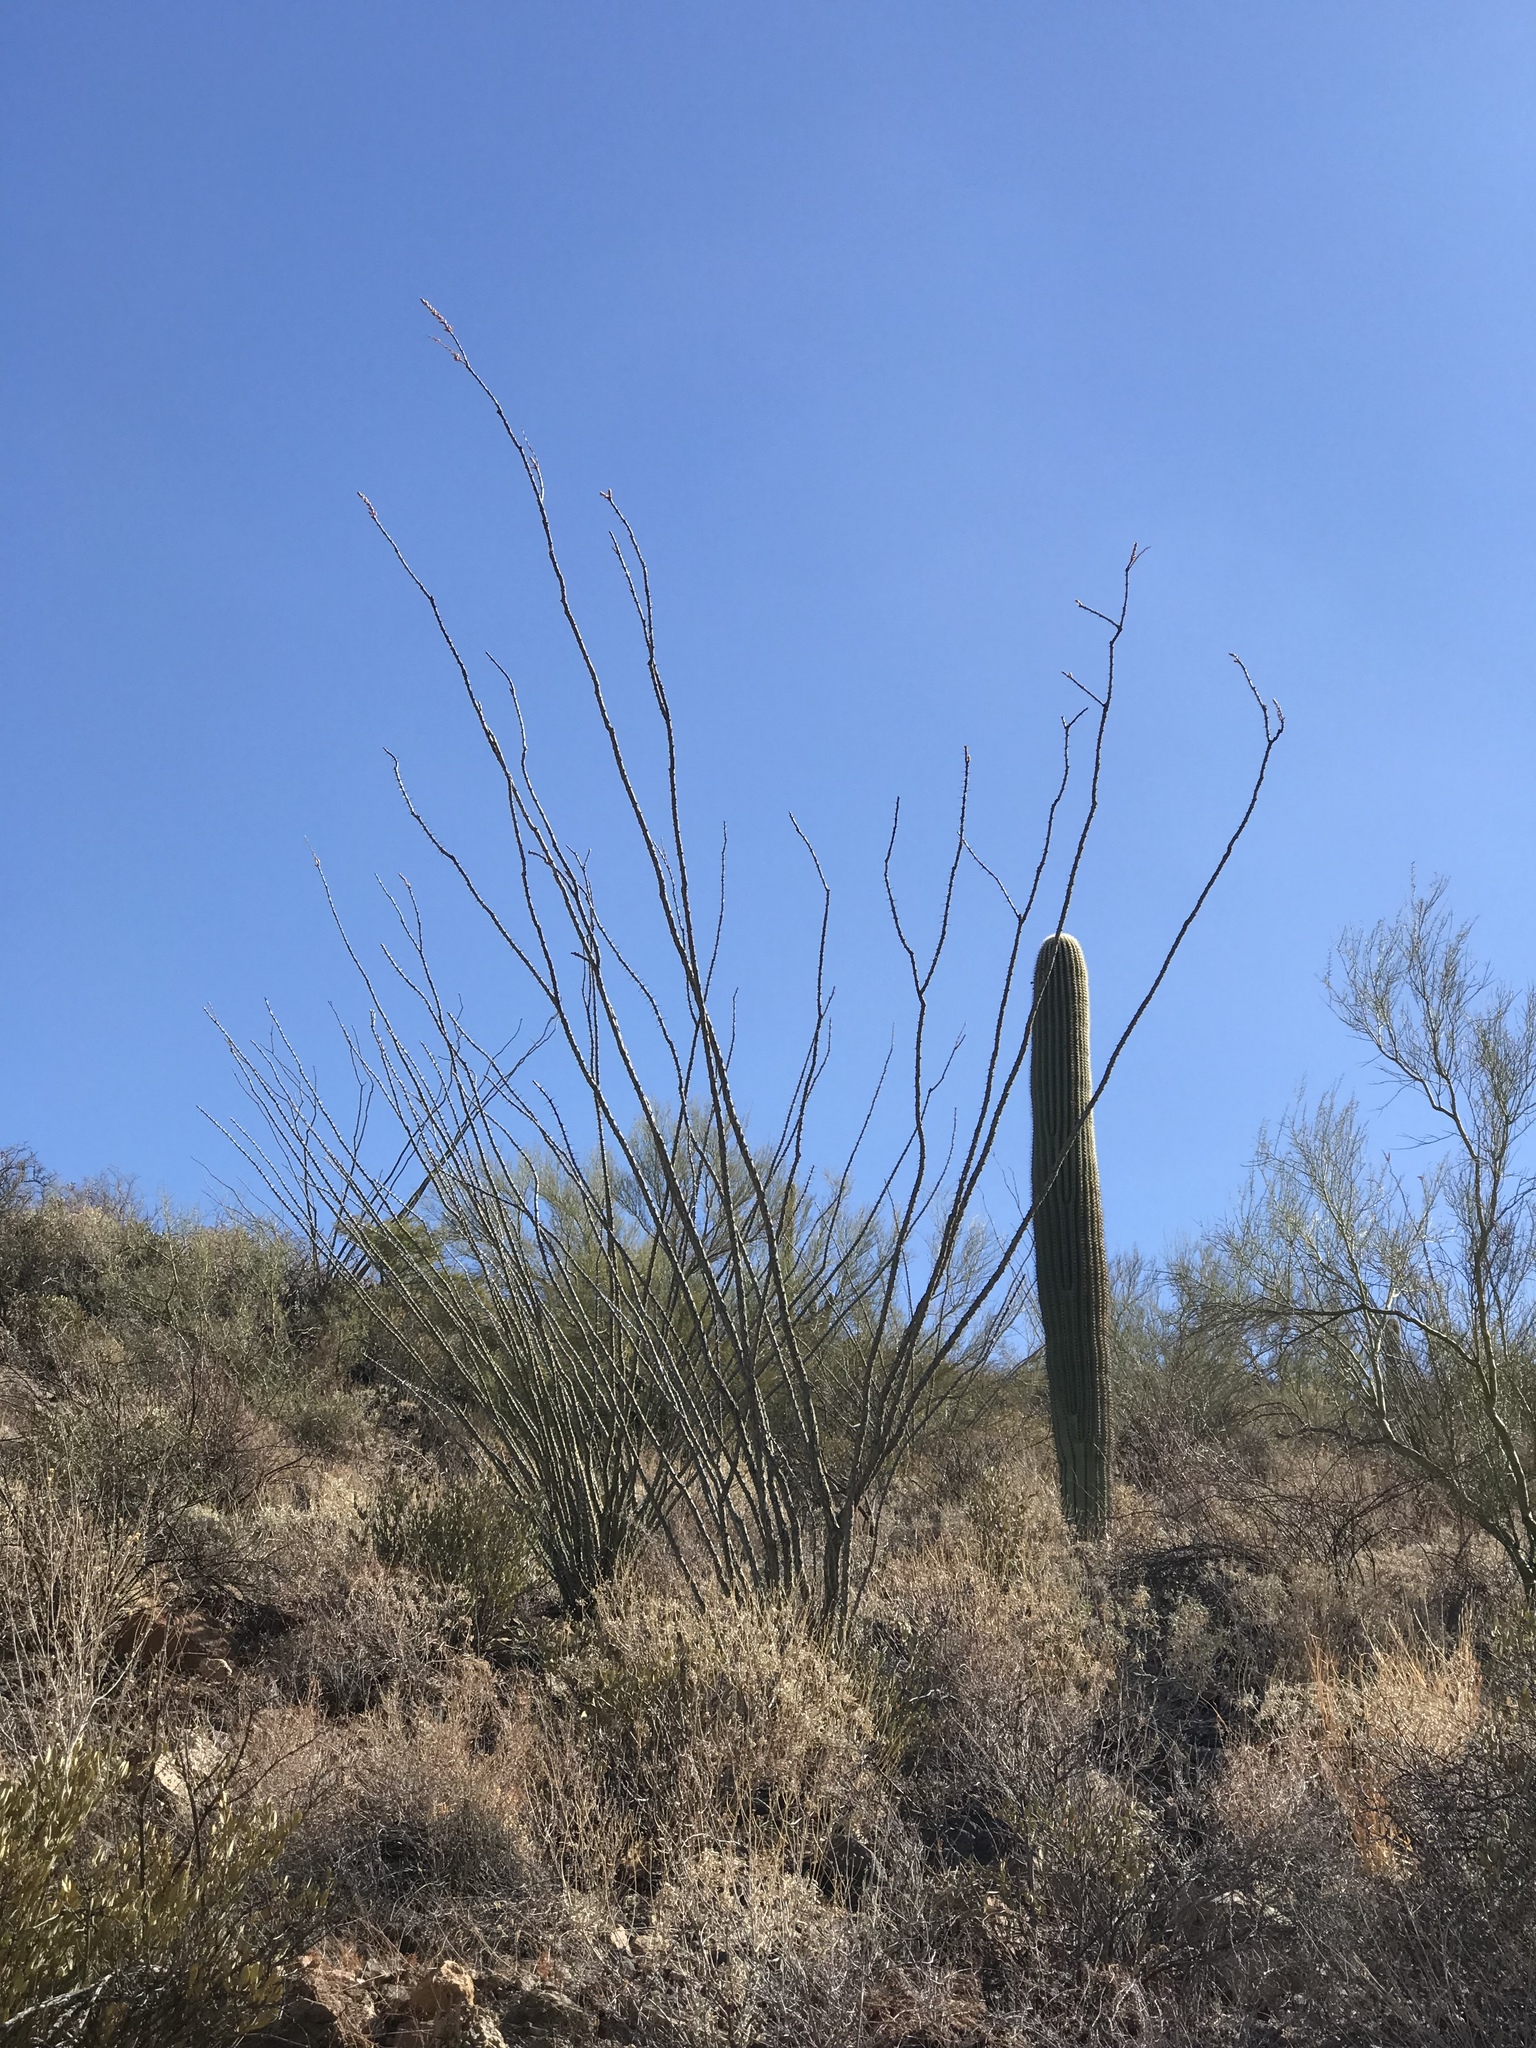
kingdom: Plantae
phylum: Tracheophyta
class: Magnoliopsida
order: Ericales
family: Fouquieriaceae
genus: Fouquieria
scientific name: Fouquieria splendens
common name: Vine-cactus
